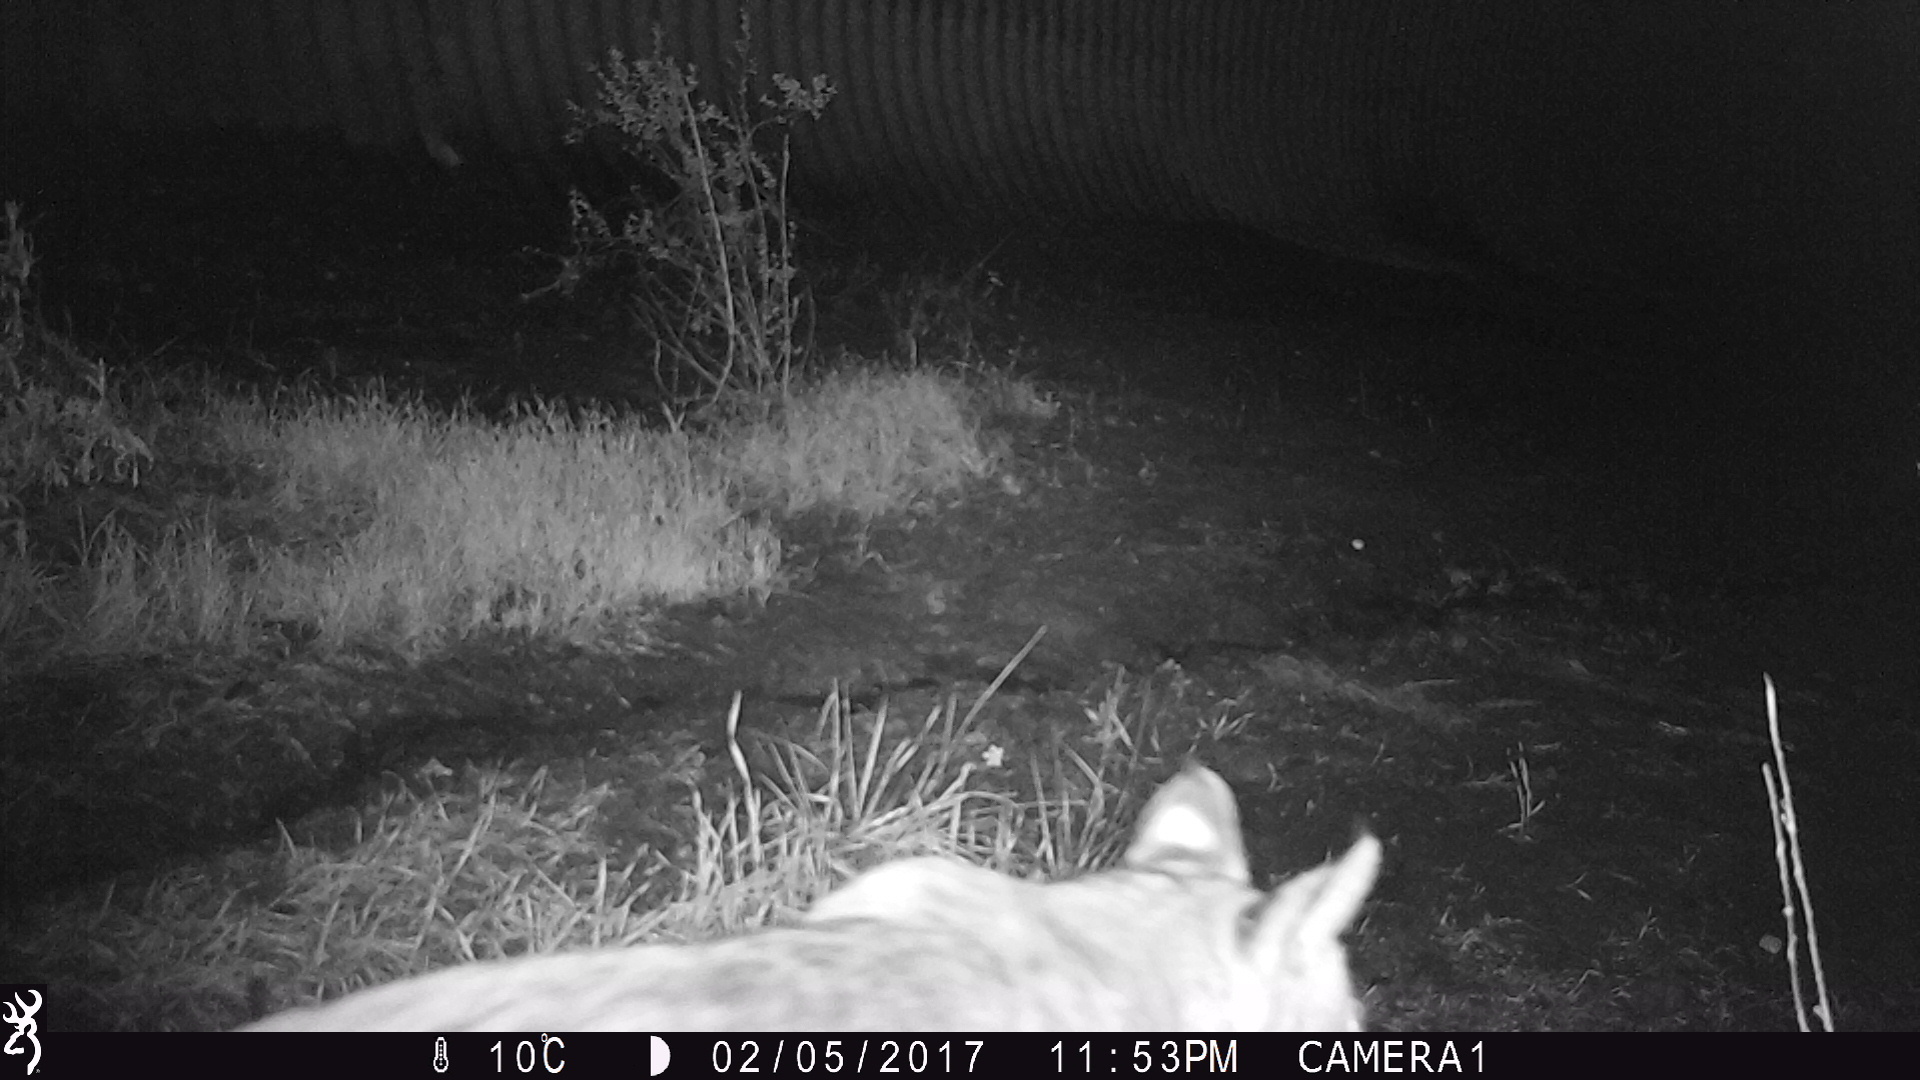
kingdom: Animalia
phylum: Chordata
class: Mammalia
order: Carnivora
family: Felidae
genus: Lynx
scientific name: Lynx rufus
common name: Bobcat
